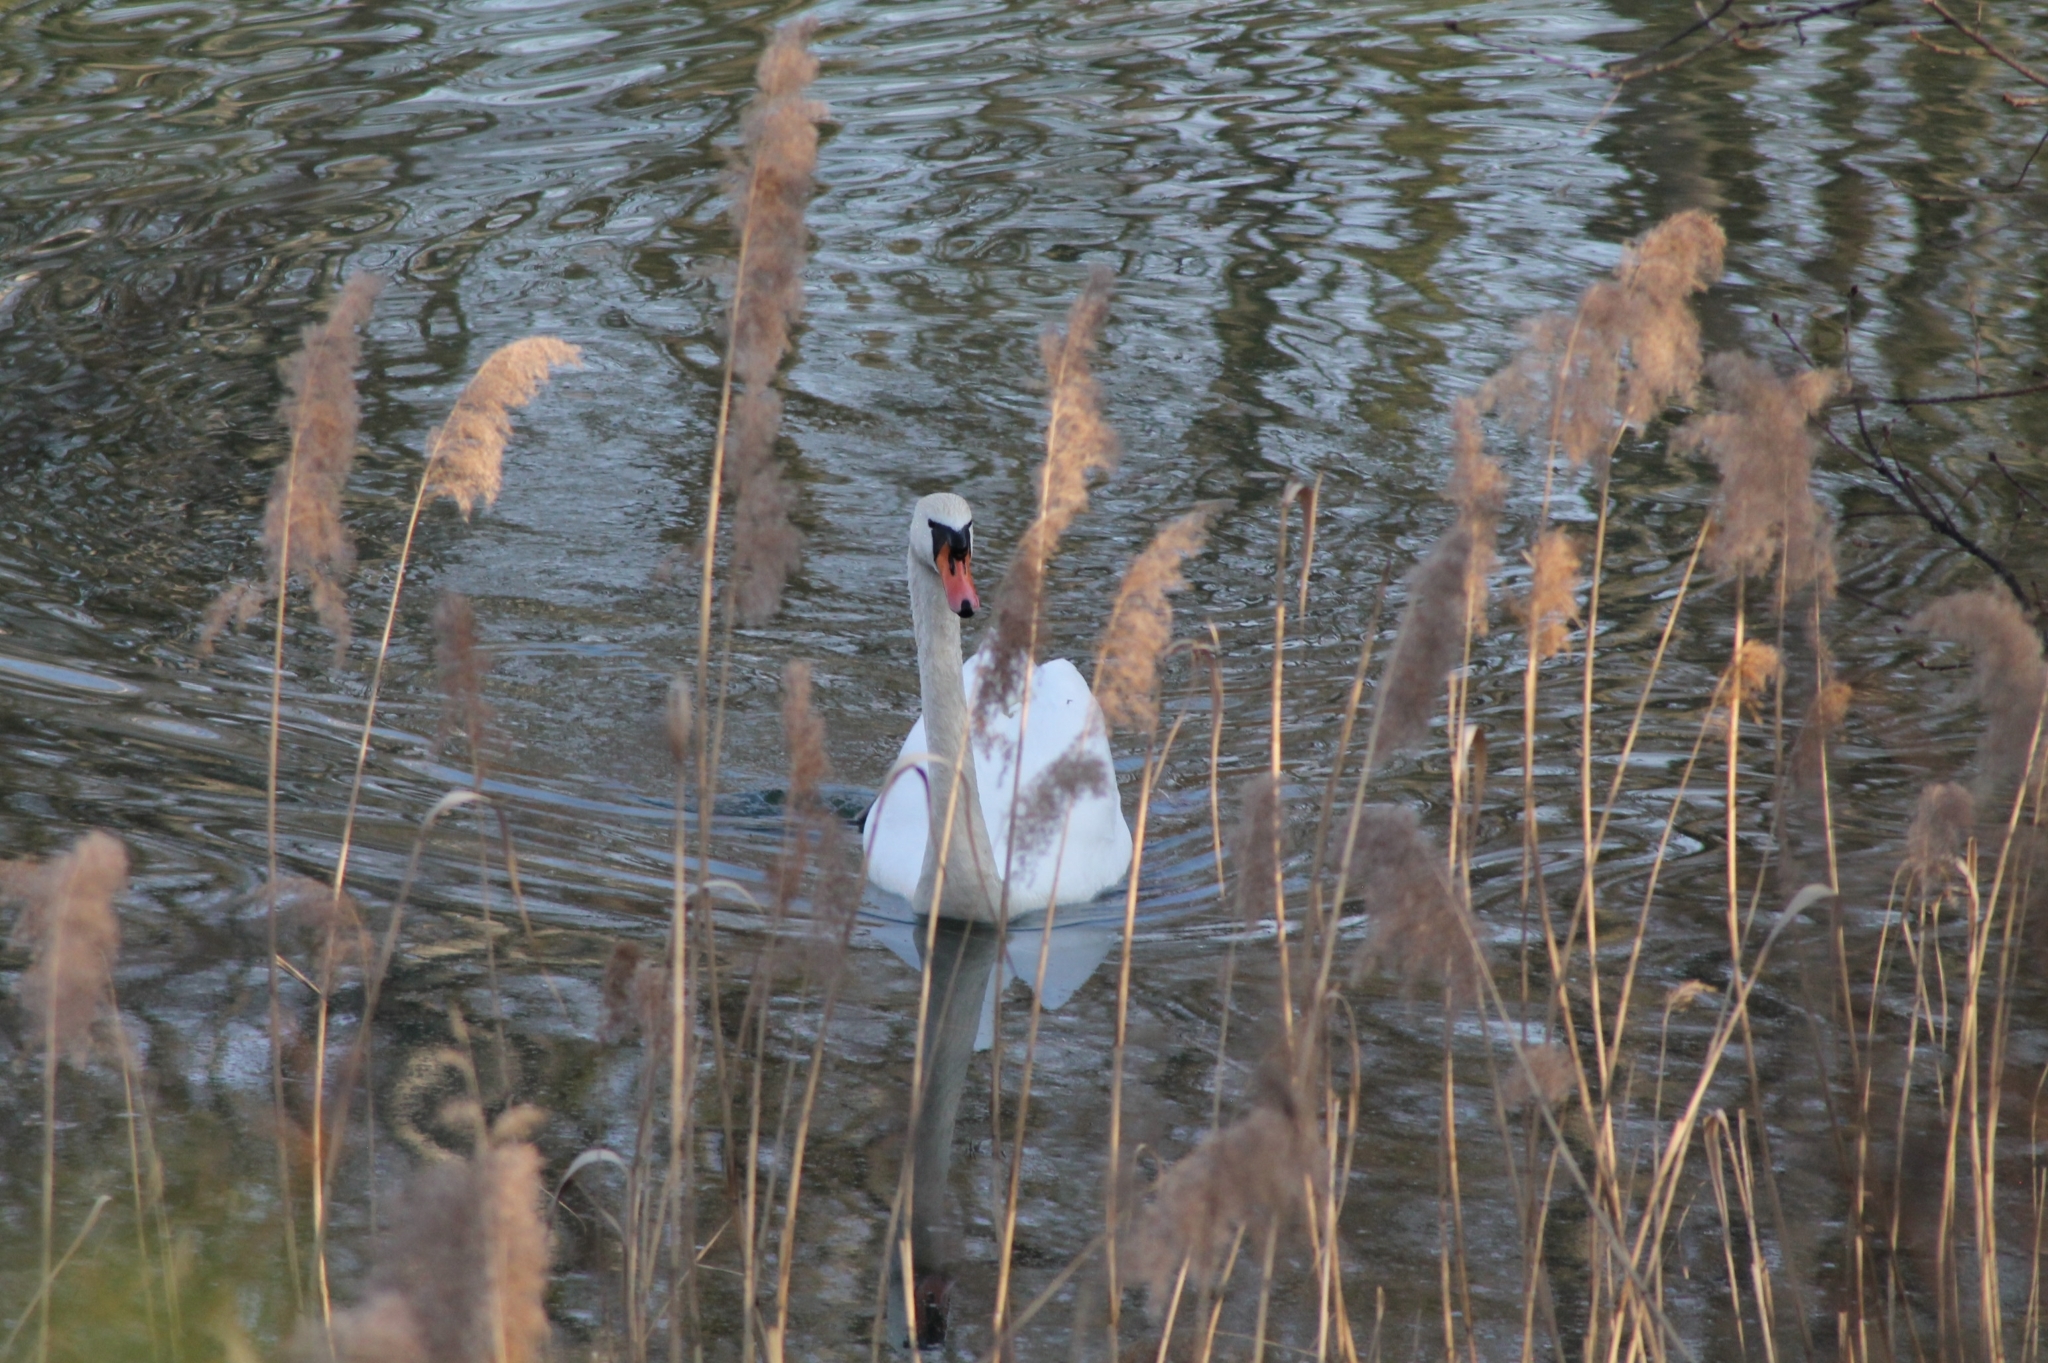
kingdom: Animalia
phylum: Chordata
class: Aves
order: Anseriformes
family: Anatidae
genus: Cygnus
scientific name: Cygnus olor
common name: Mute swan
